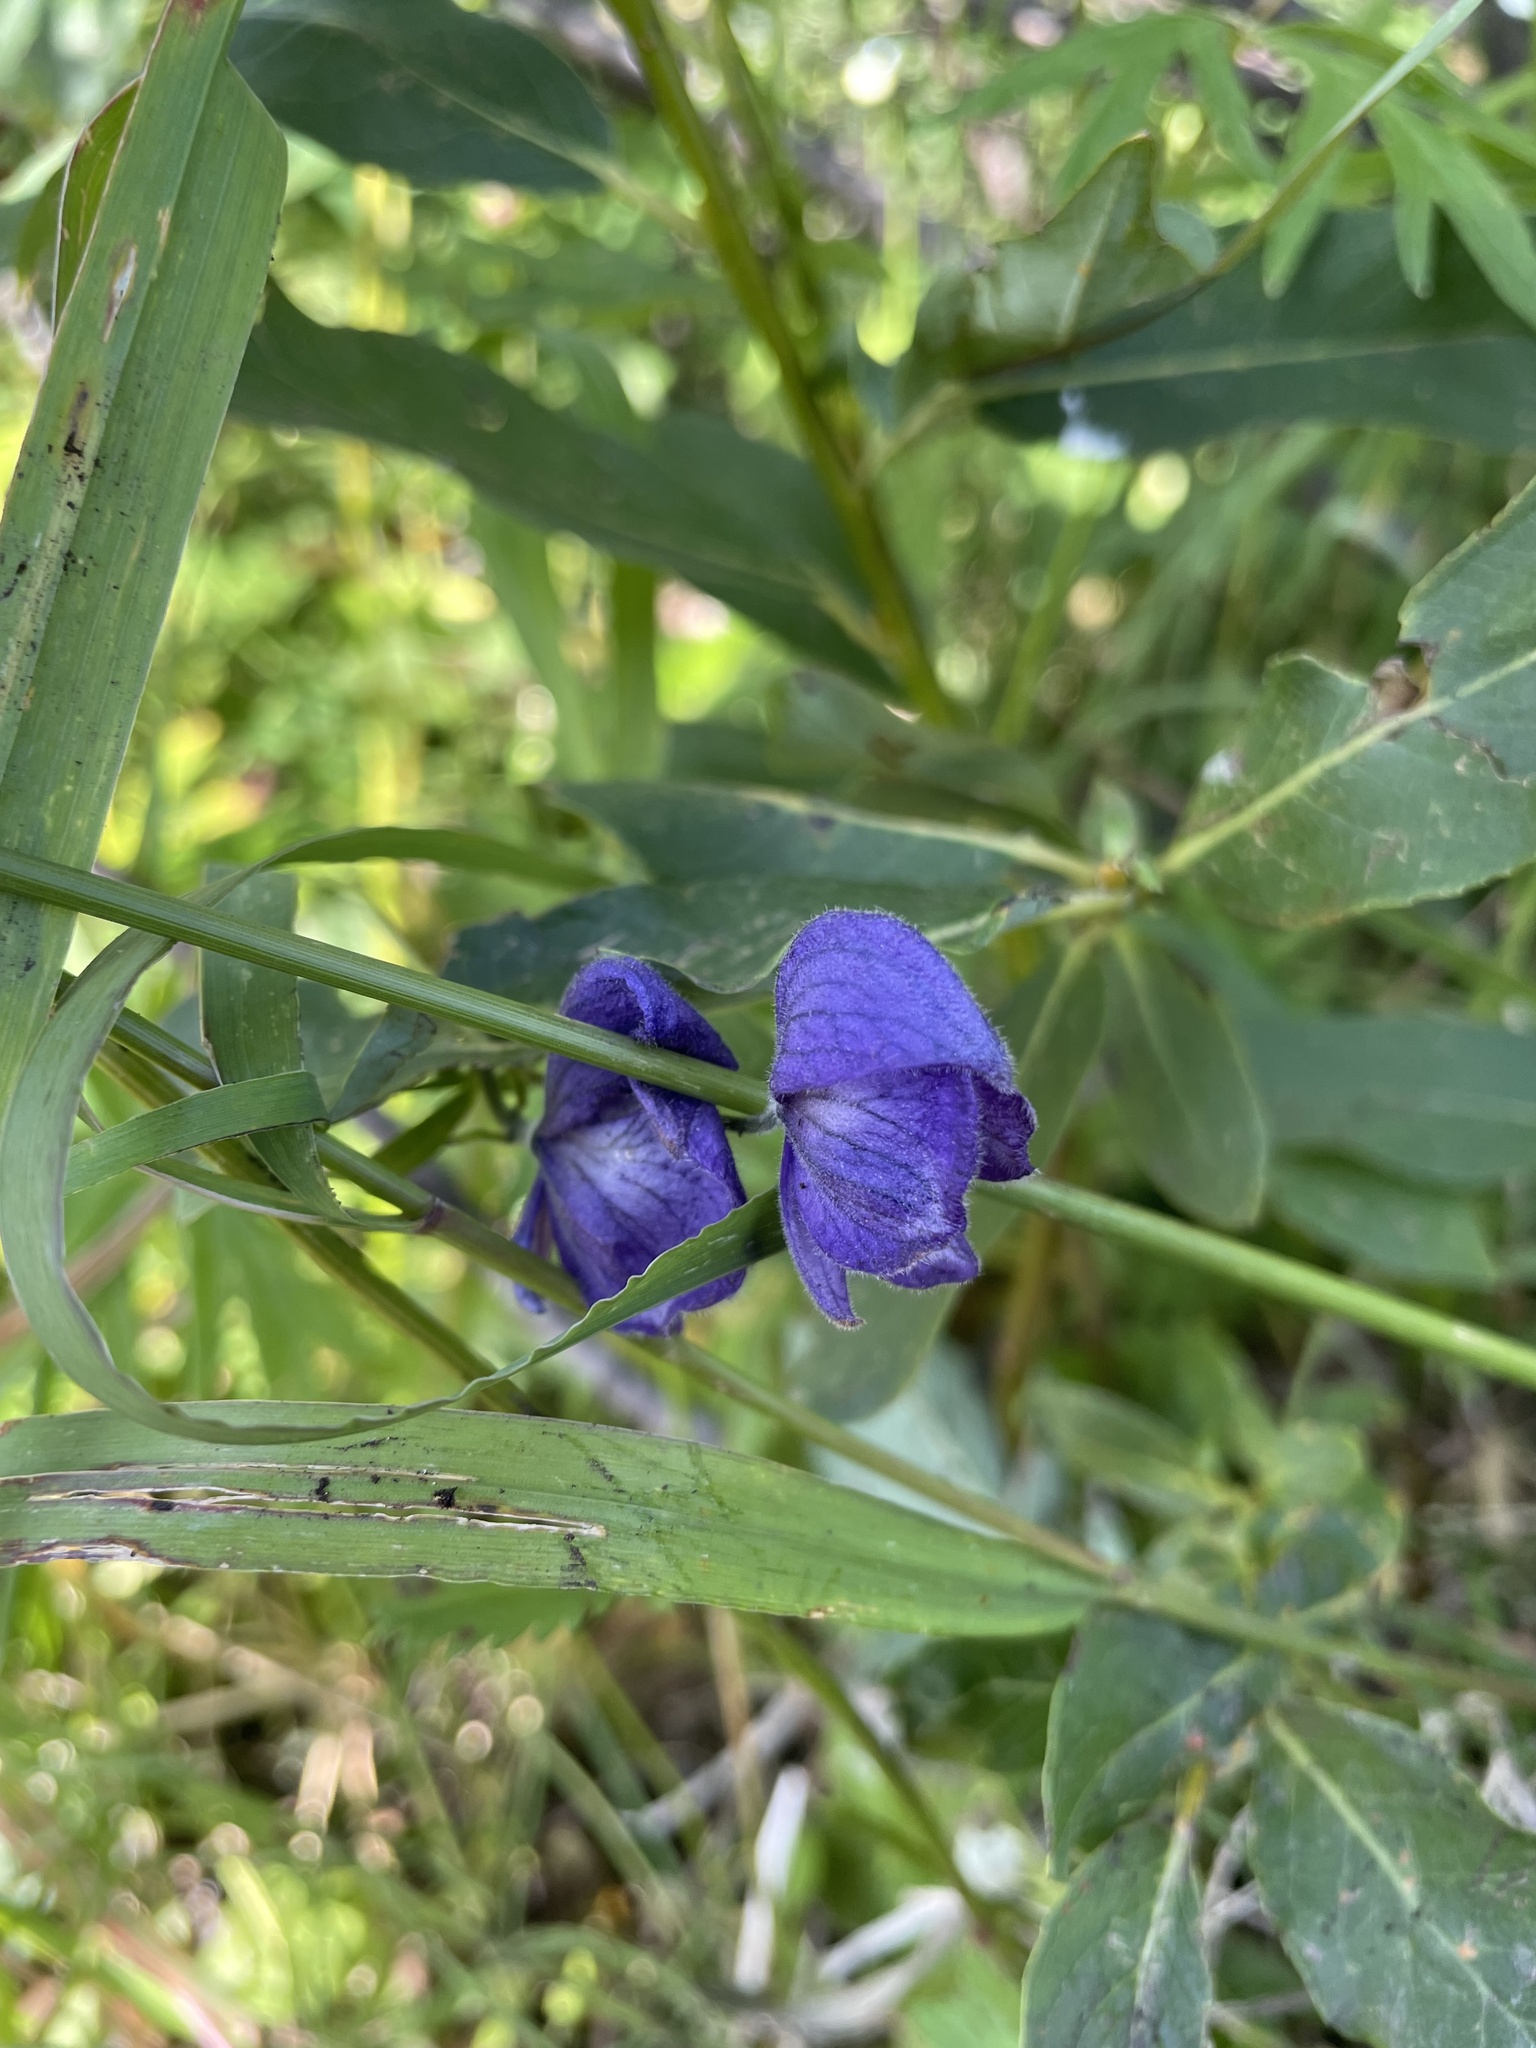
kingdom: Plantae
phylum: Tracheophyta
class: Magnoliopsida
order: Ranunculales
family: Ranunculaceae
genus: Aconitum
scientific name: Aconitum delphiniifolium
